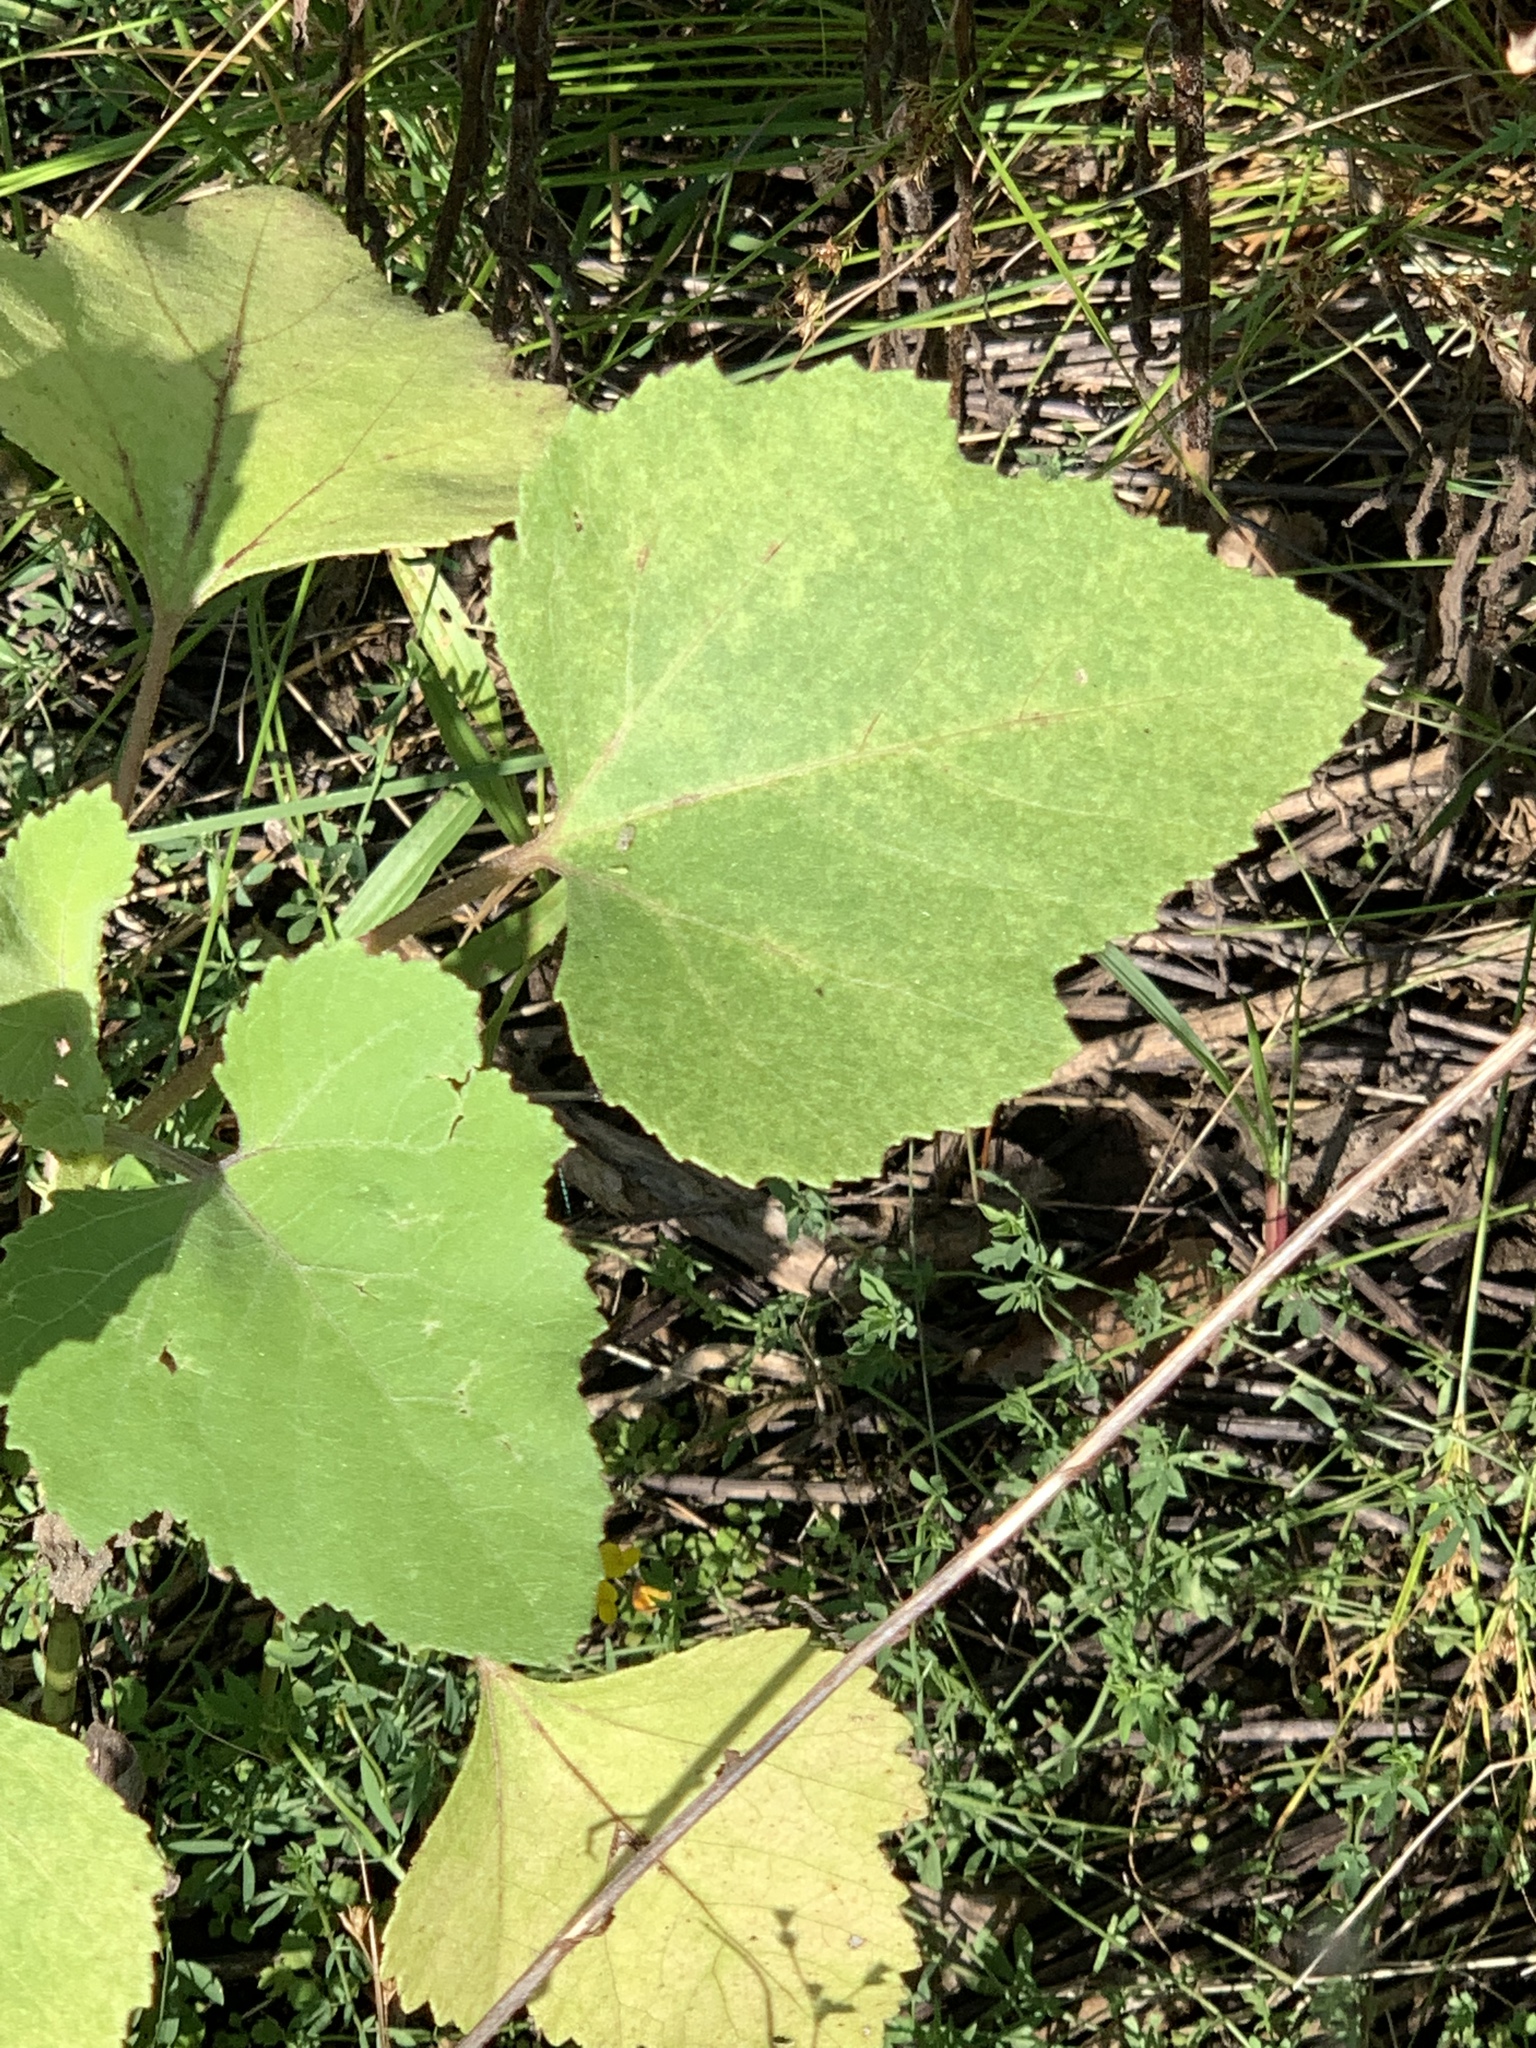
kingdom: Plantae
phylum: Tracheophyta
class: Magnoliopsida
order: Asterales
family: Asteraceae
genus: Xanthium
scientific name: Xanthium strumarium
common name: Rough cocklebur
